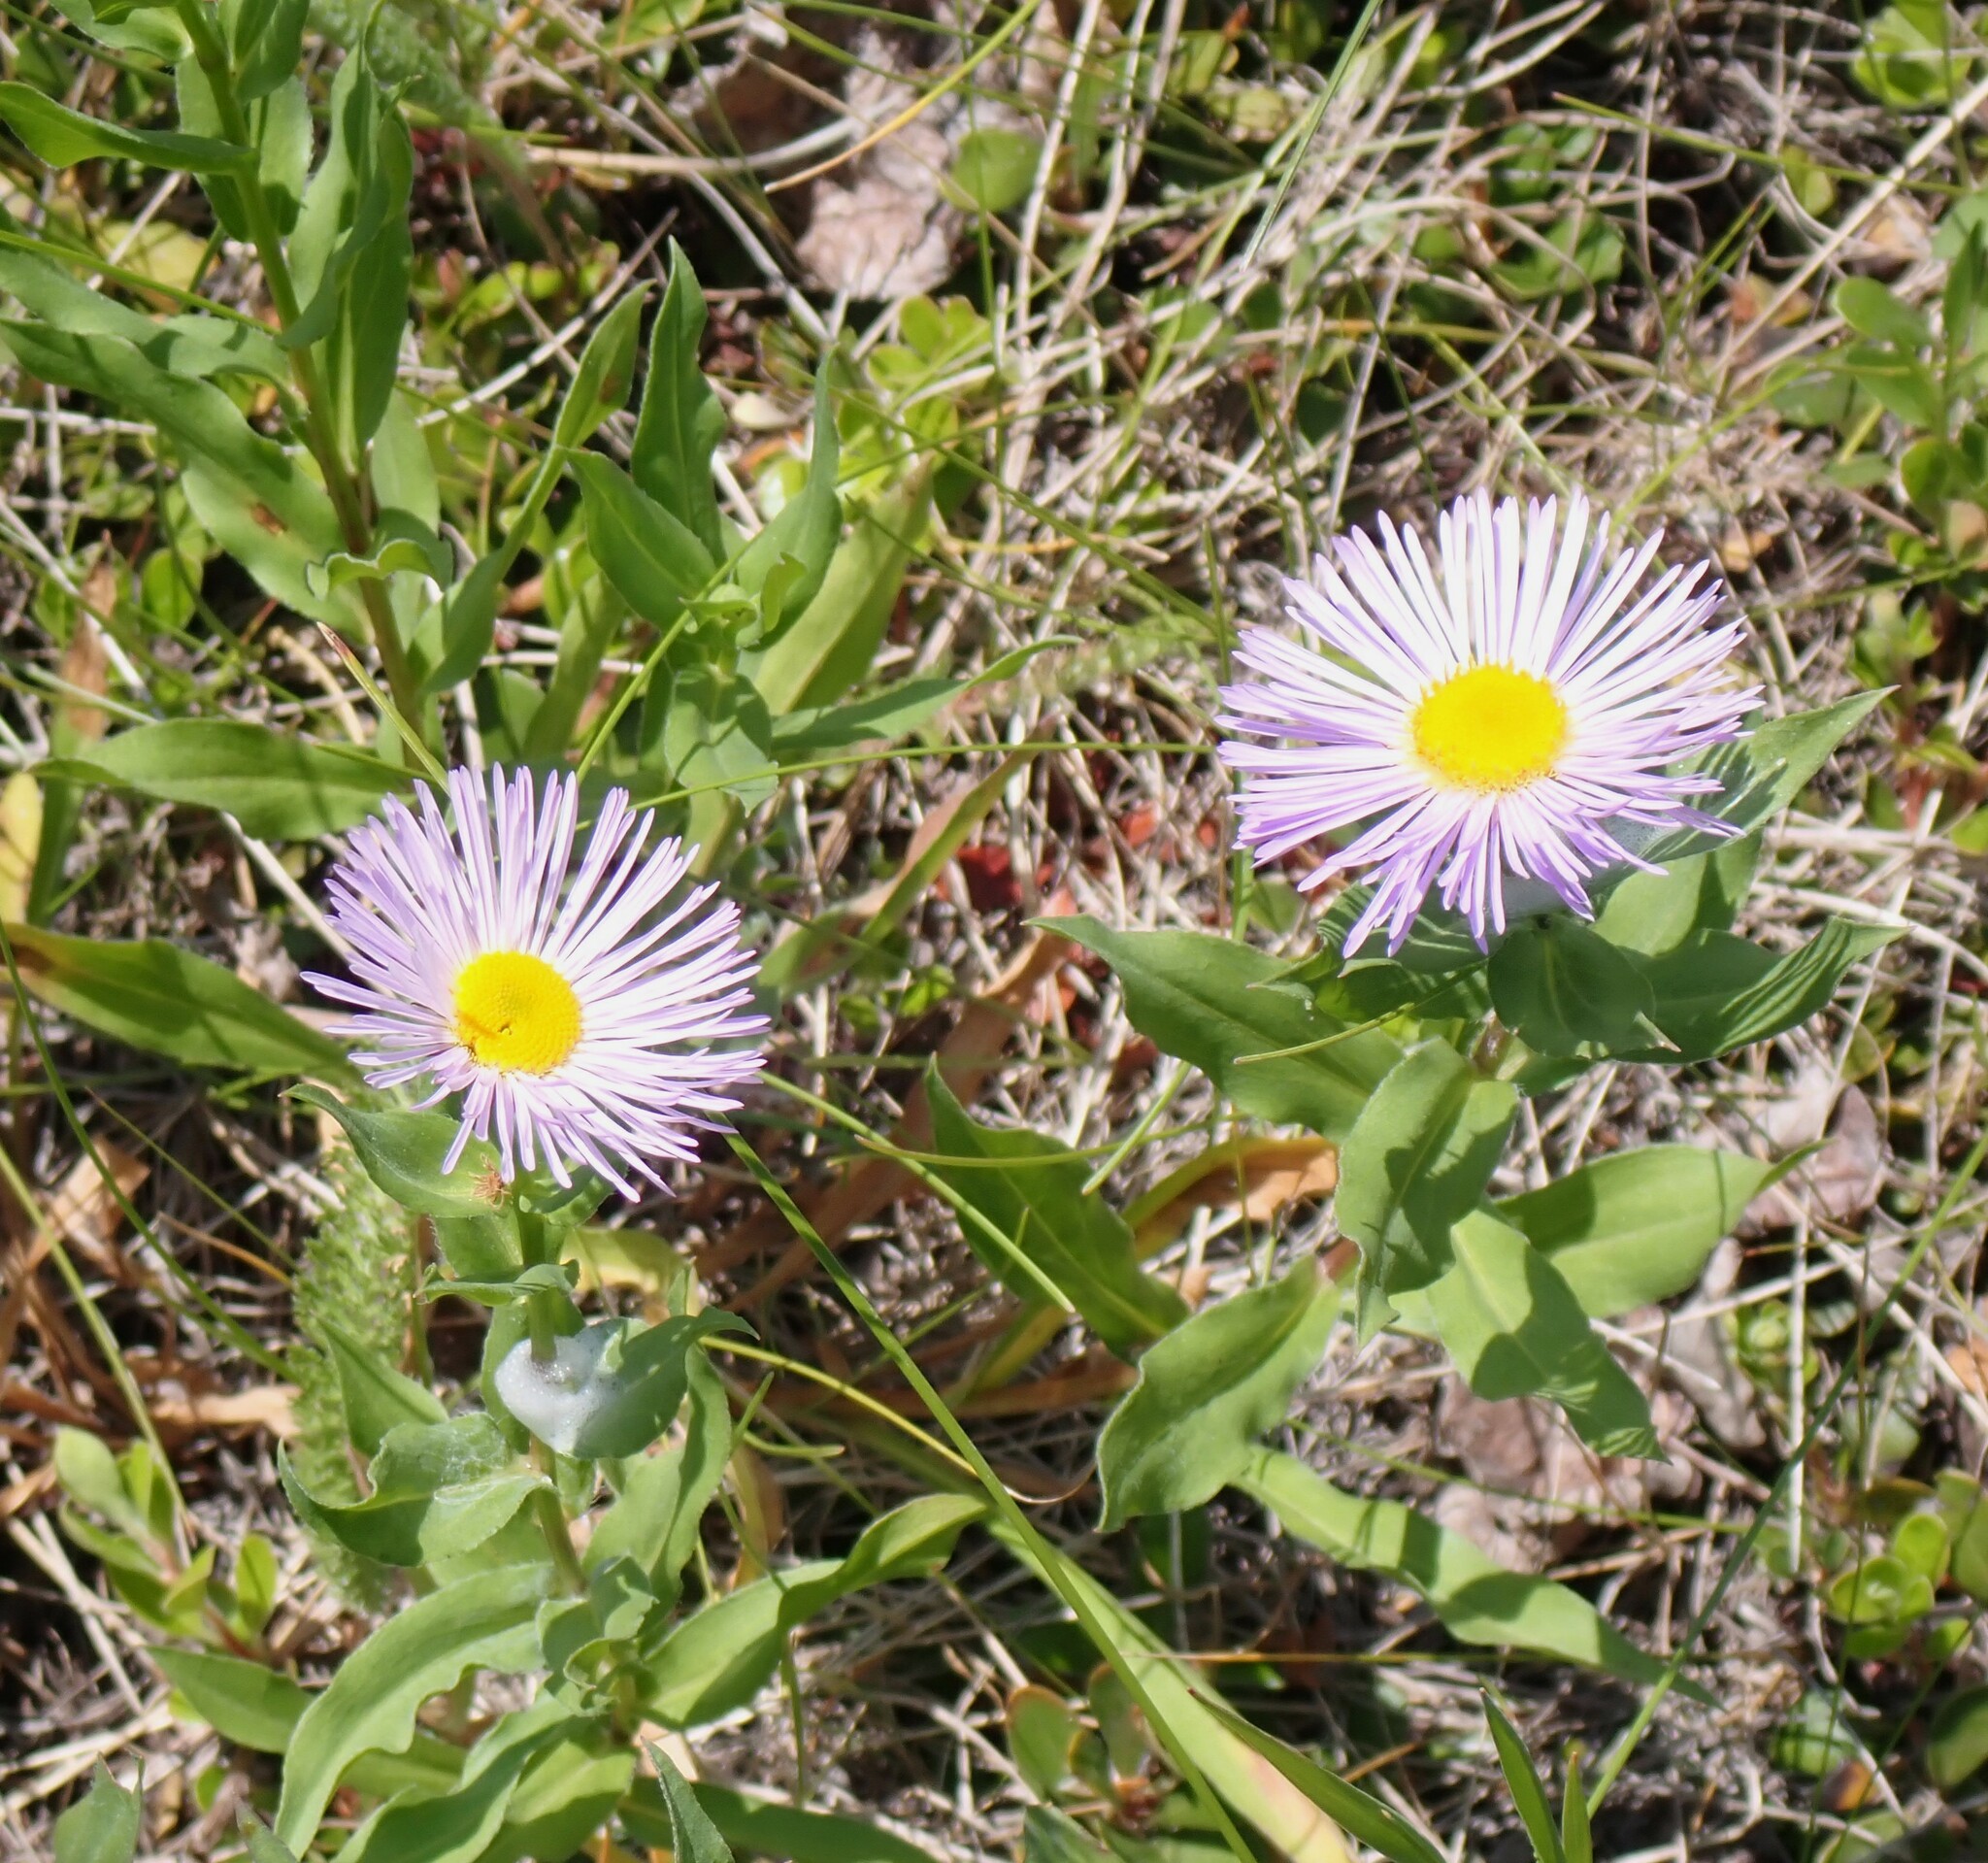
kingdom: Plantae
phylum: Tracheophyta
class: Magnoliopsida
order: Asterales
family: Asteraceae
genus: Erigeron
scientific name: Erigeron speciosus
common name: Aspen fleabane
